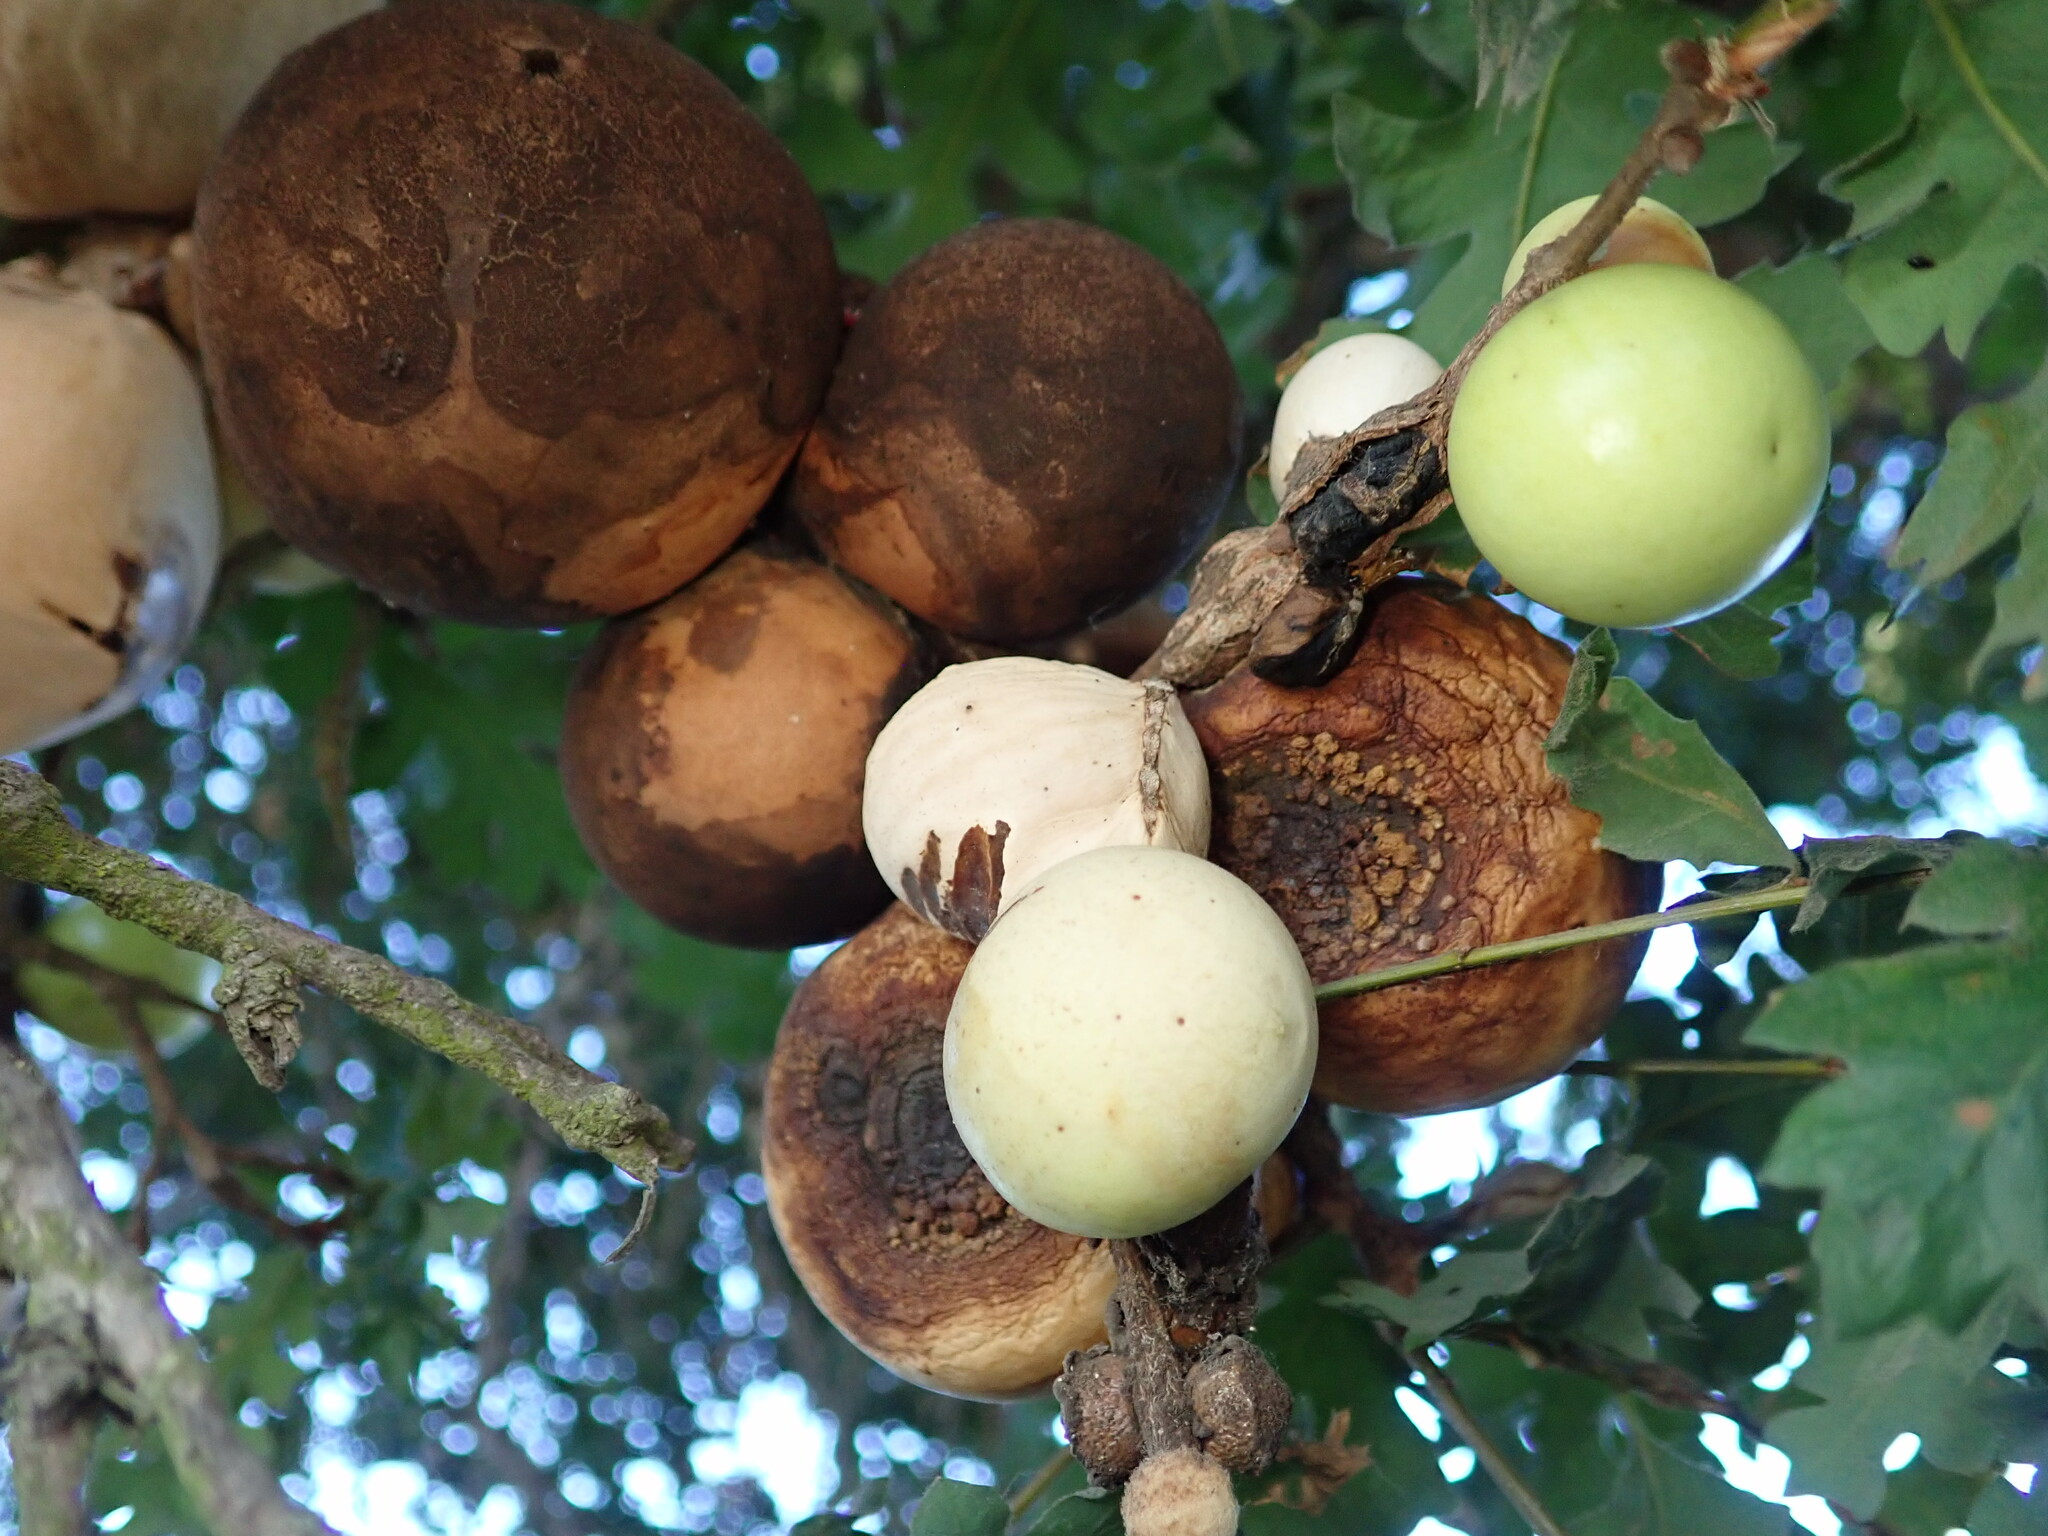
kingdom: Animalia
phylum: Arthropoda
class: Insecta
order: Hymenoptera
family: Cynipidae
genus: Andricus
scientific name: Andricus quercuscalifornicus
